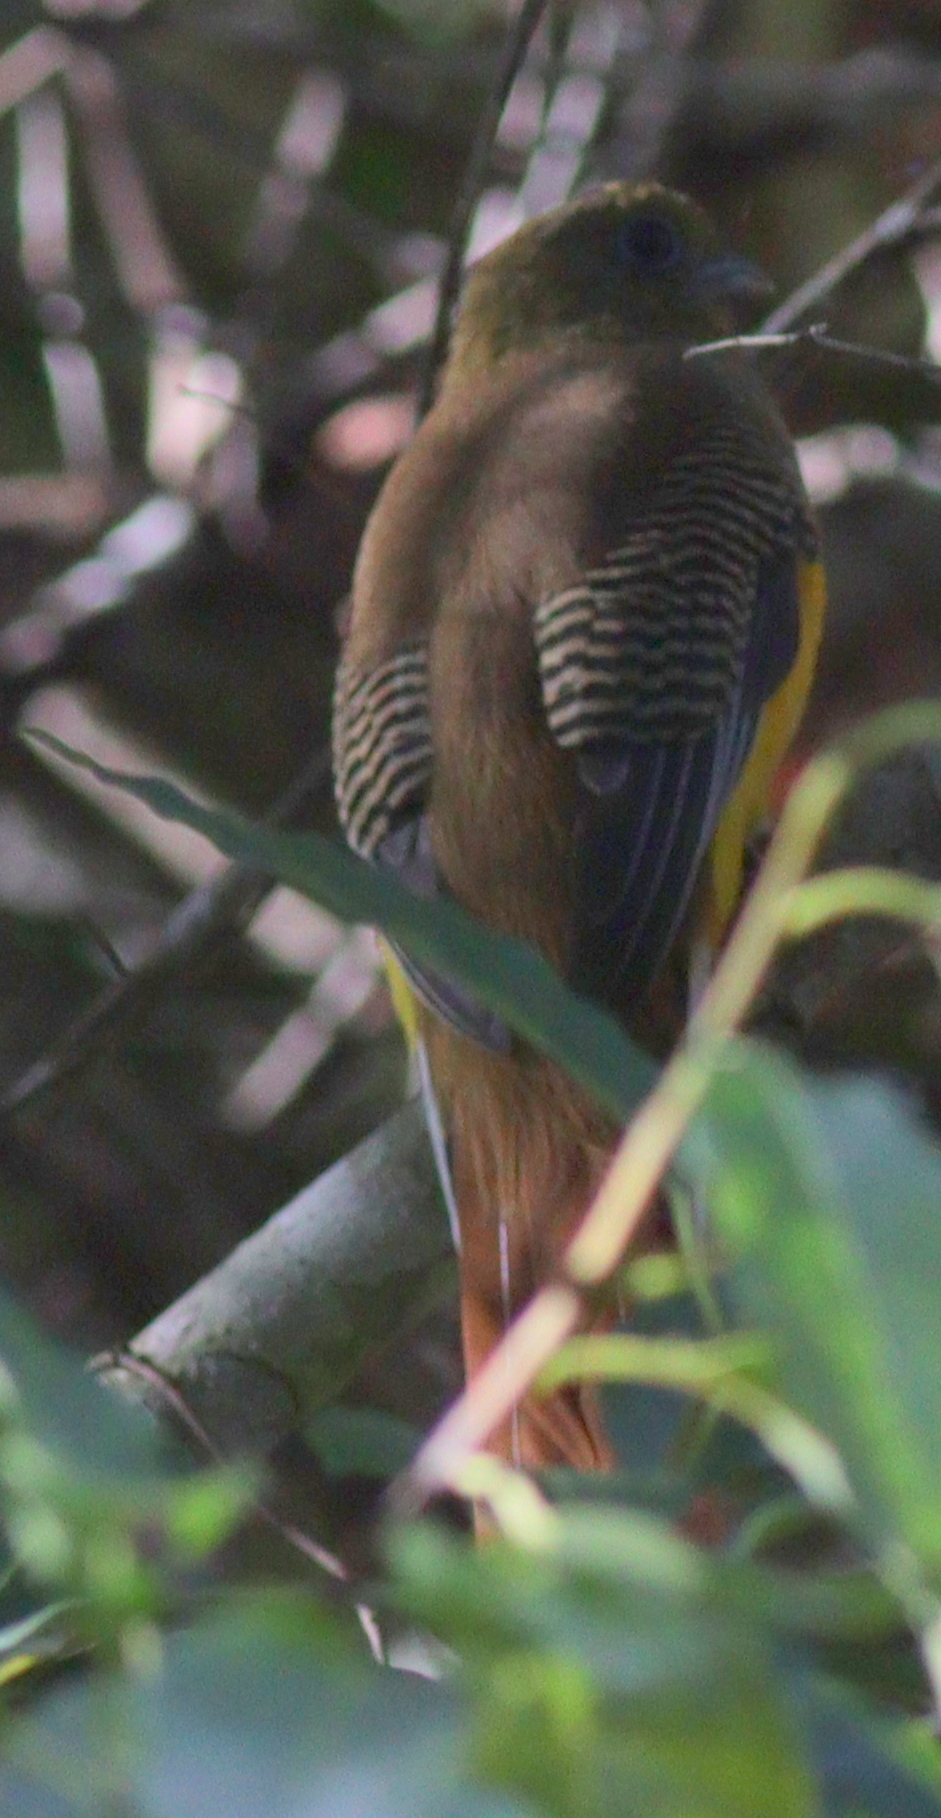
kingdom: Animalia
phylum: Chordata
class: Aves
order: Trogoniformes
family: Trogonidae
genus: Harpactes
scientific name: Harpactes oreskios
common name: Orange-breasted trogon
